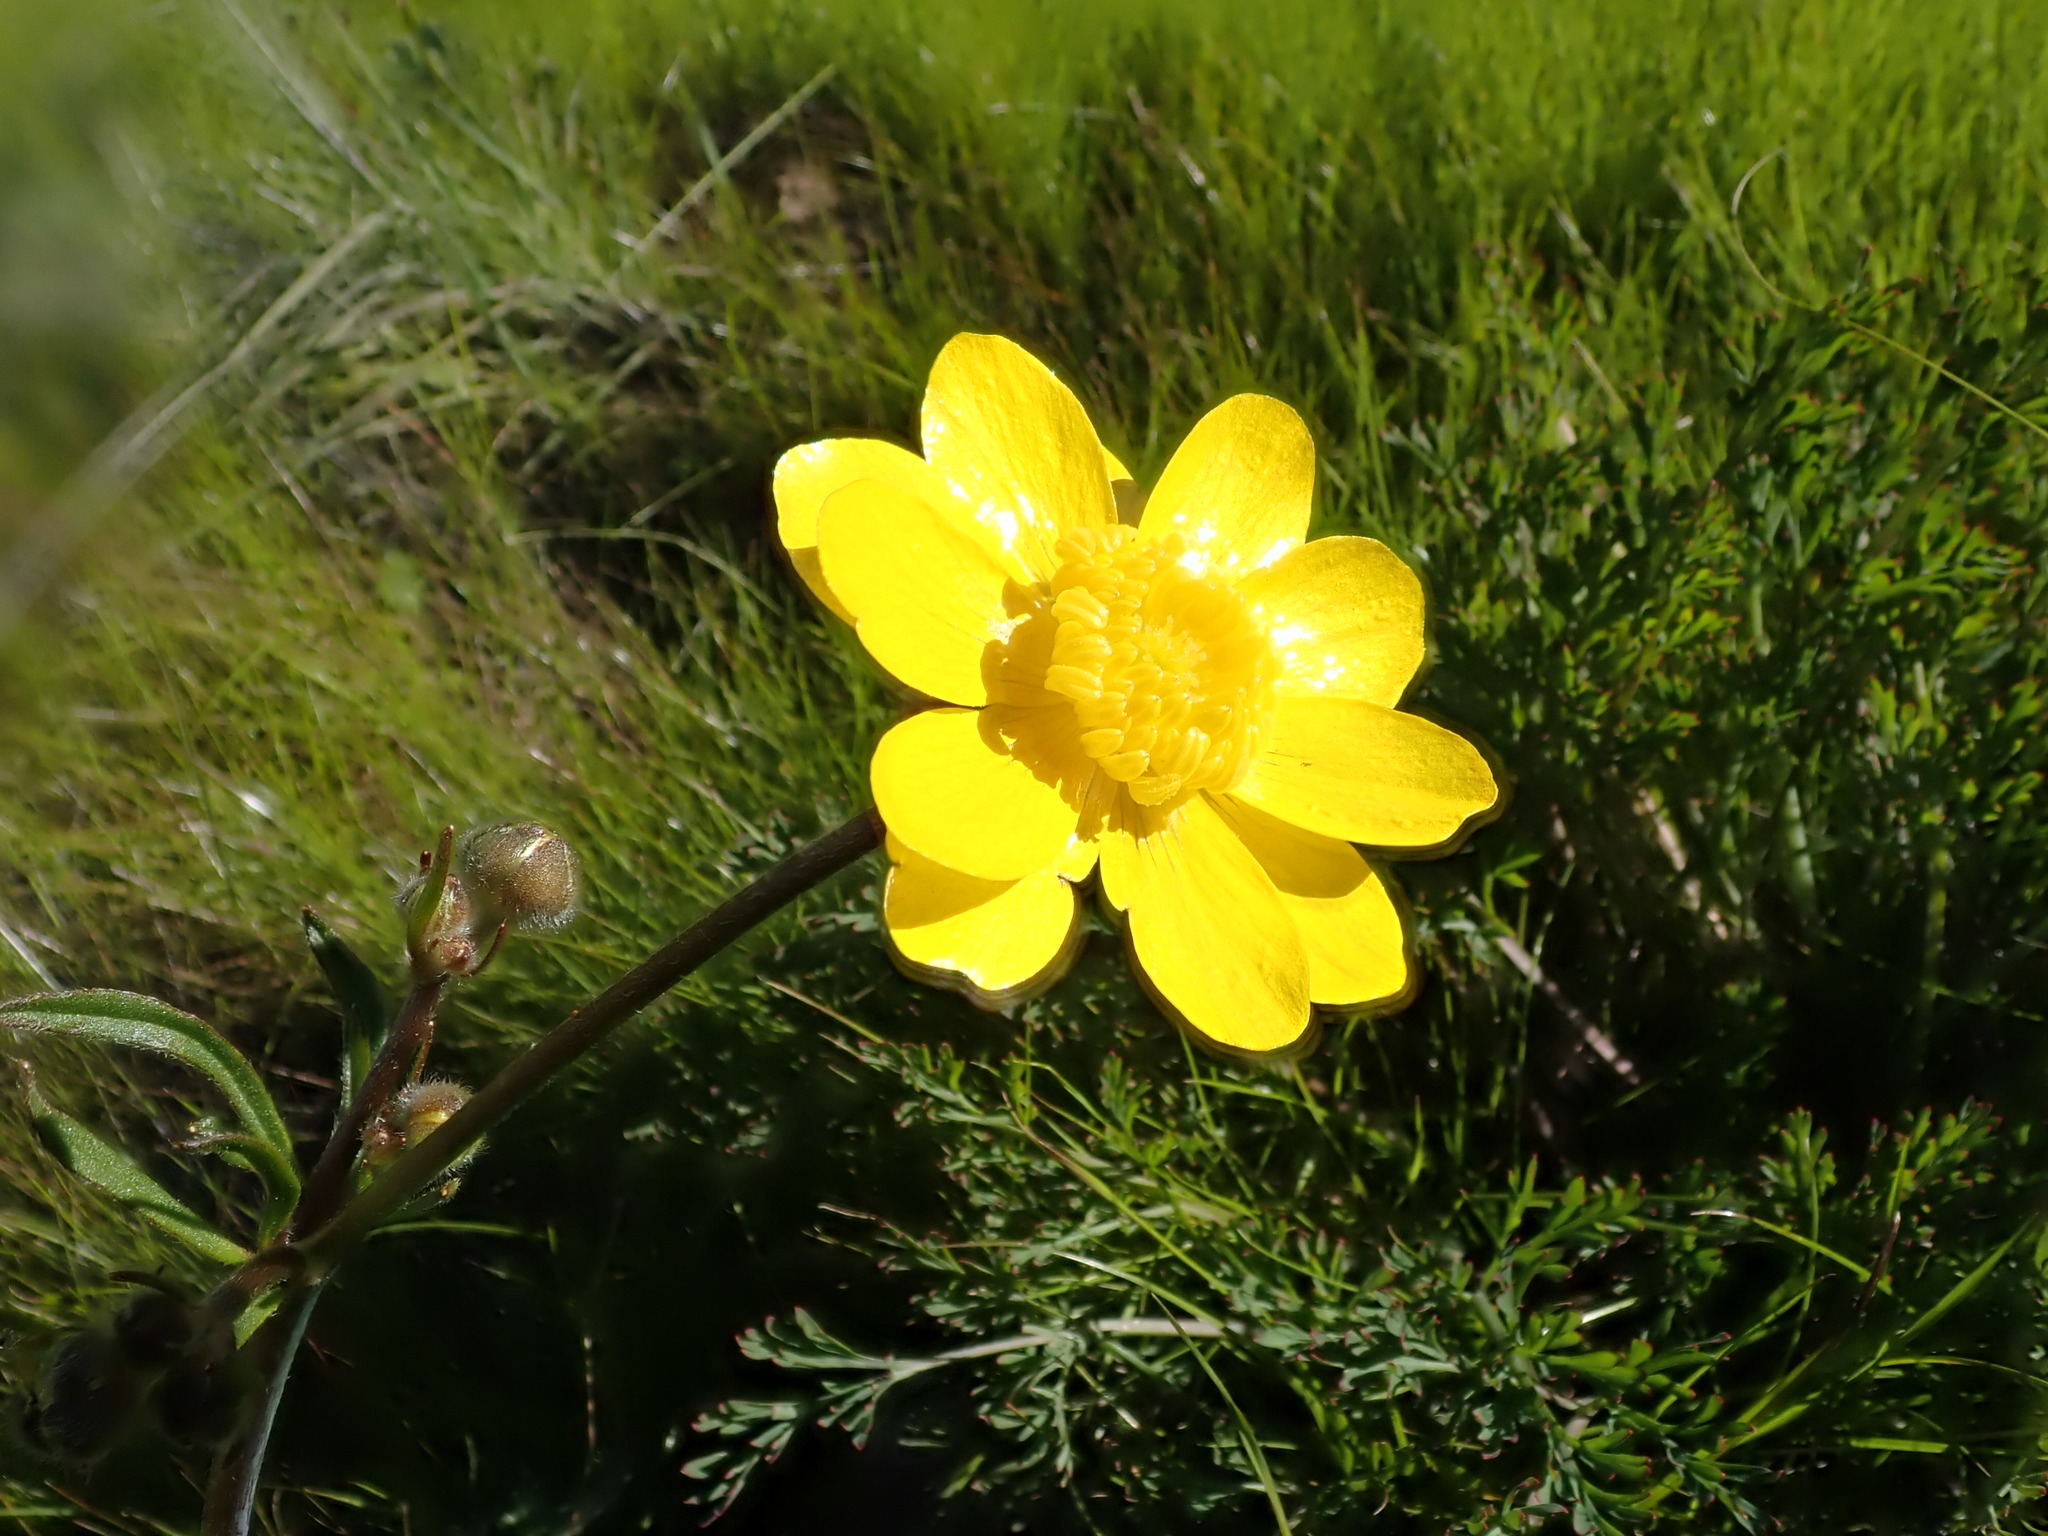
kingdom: Plantae
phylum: Tracheophyta
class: Magnoliopsida
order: Ranunculales
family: Ranunculaceae
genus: Ranunculus
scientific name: Ranunculus californicus
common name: California buttercup
